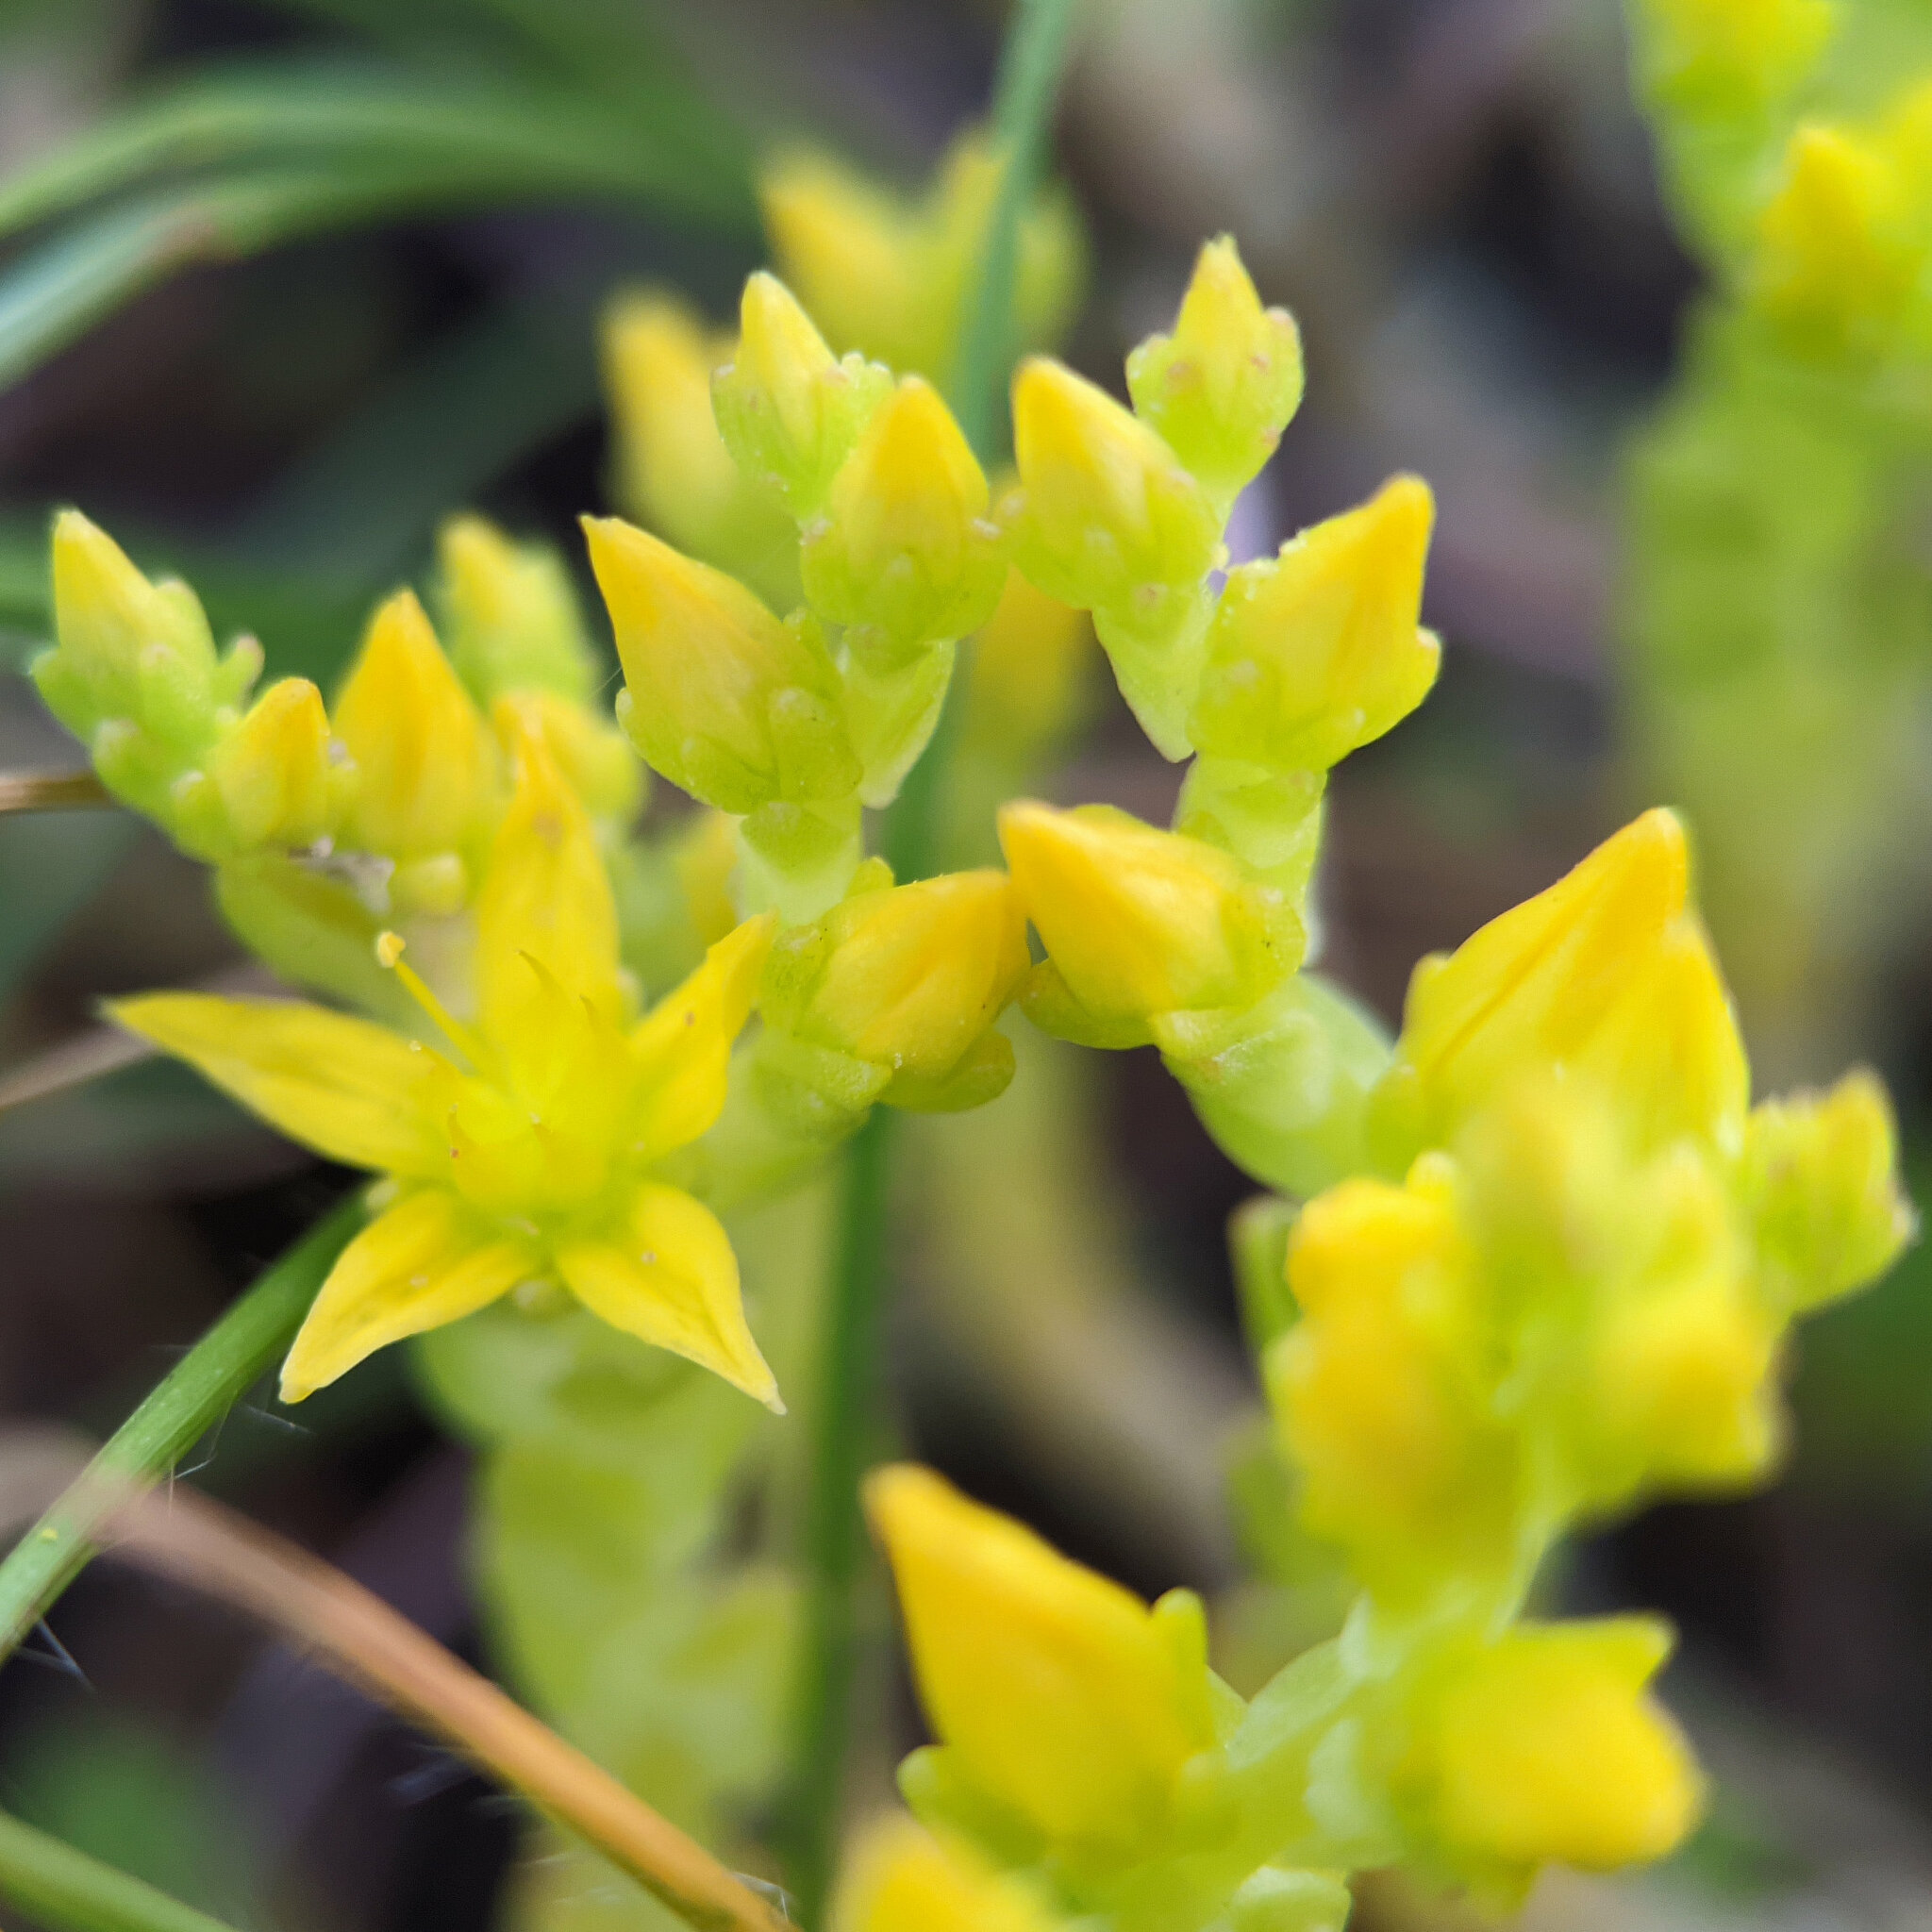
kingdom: Plantae
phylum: Tracheophyta
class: Magnoliopsida
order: Saxifragales
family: Crassulaceae
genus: Sedum
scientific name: Sedum acre
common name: Biting stonecrop
